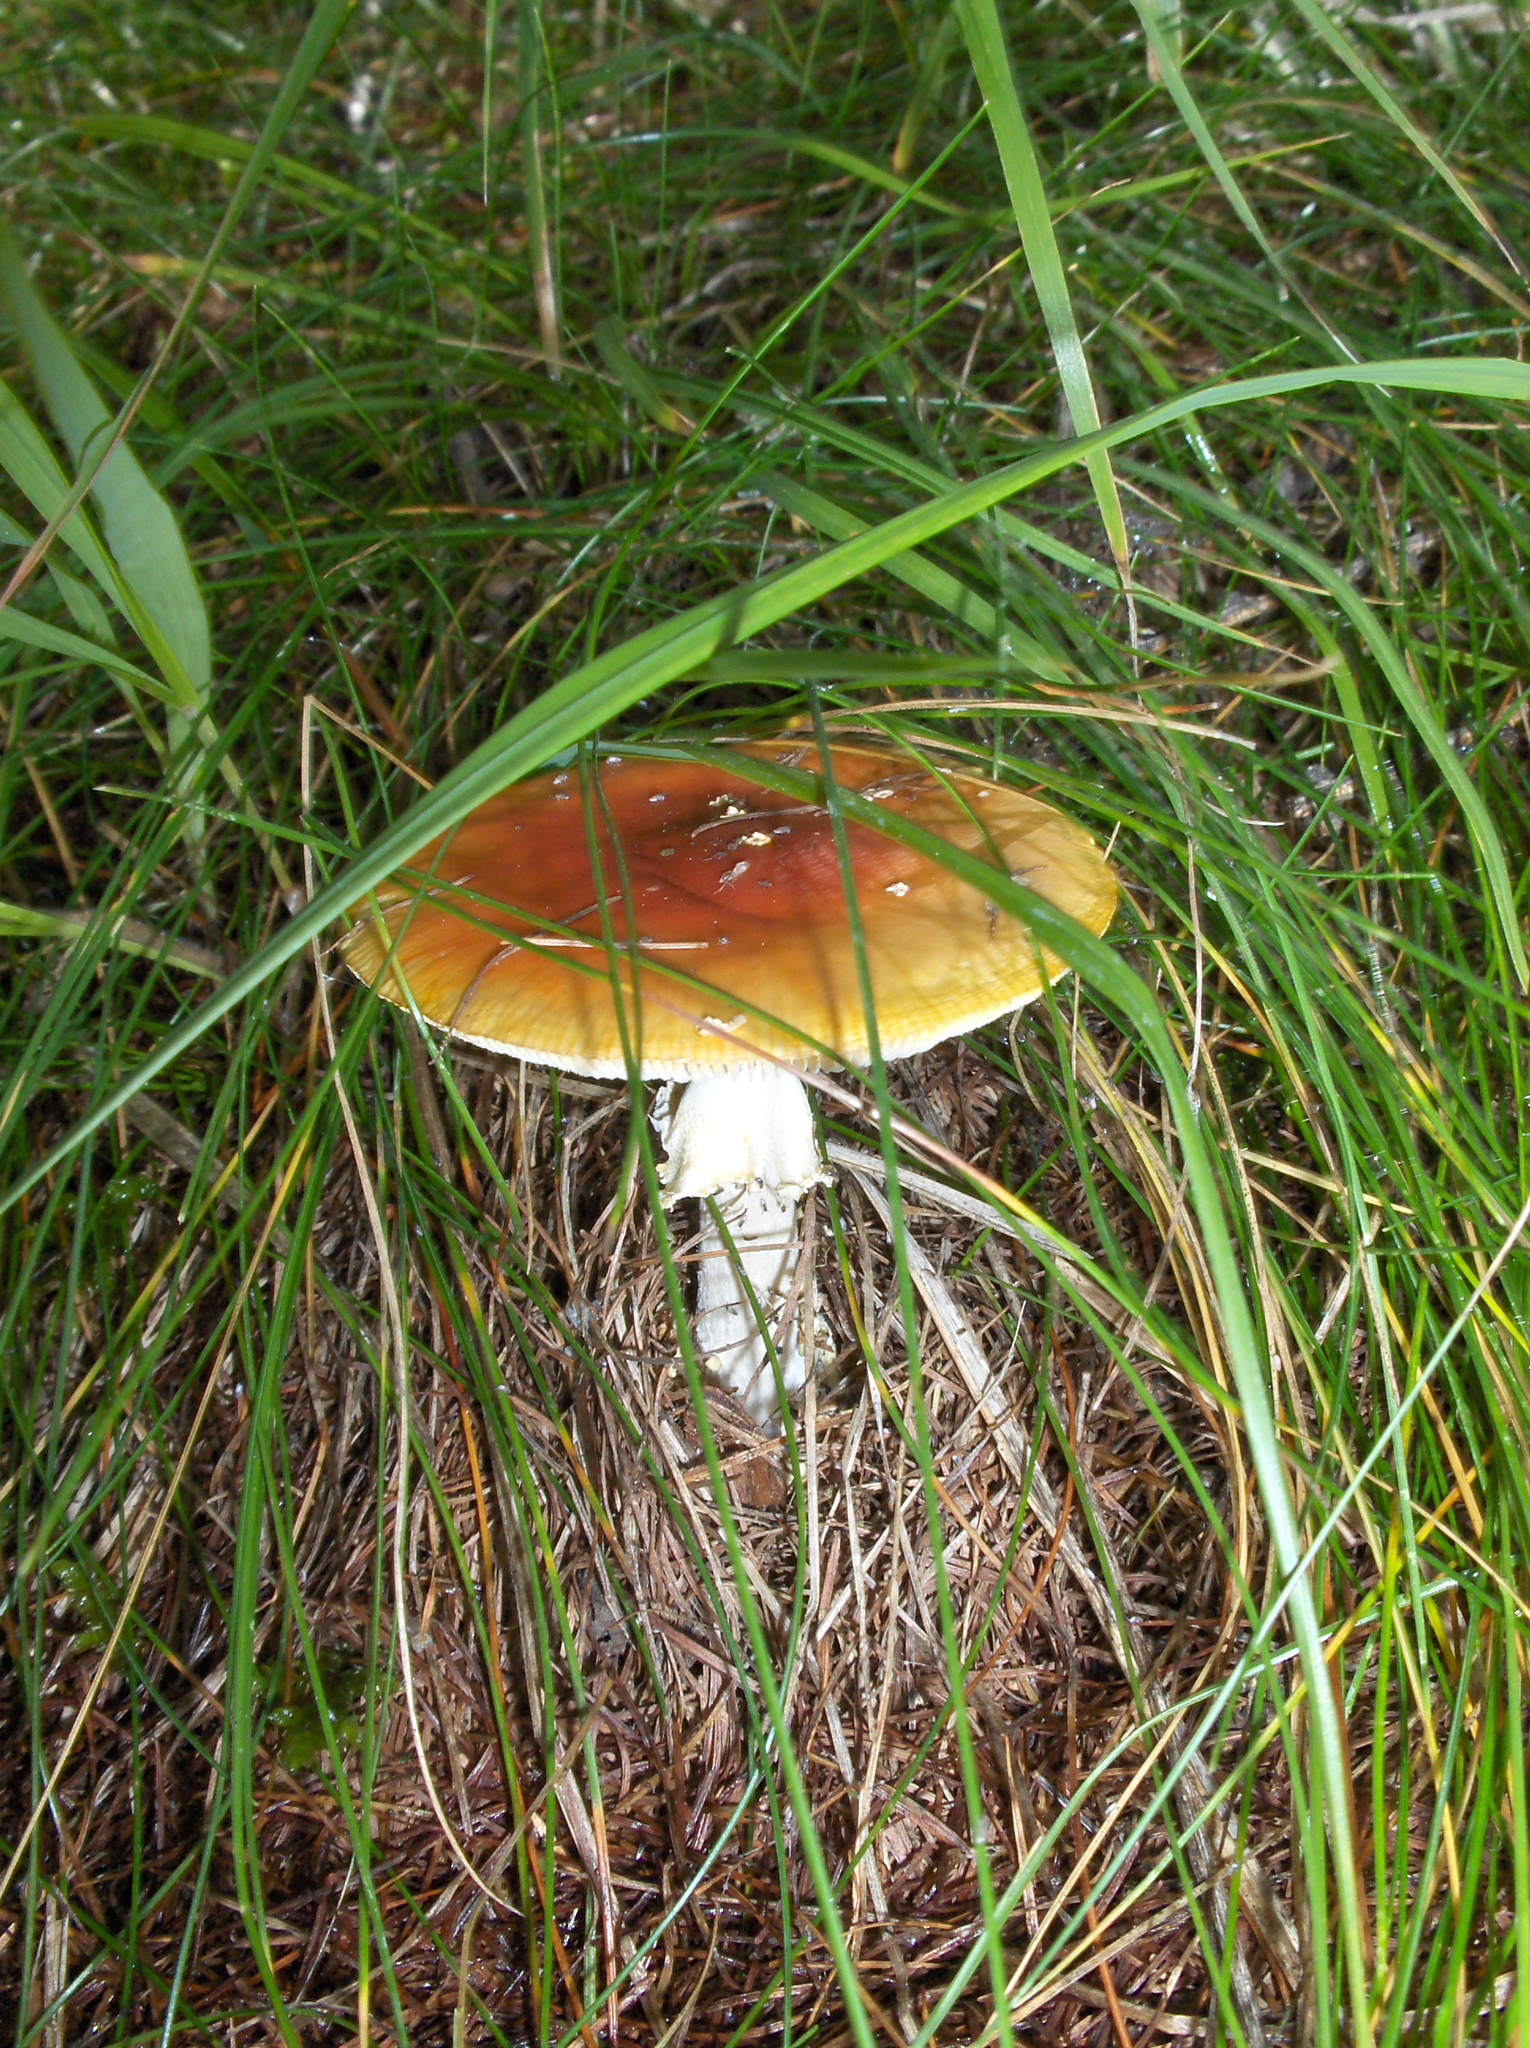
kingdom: Fungi
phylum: Basidiomycota
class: Agaricomycetes
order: Agaricales
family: Amanitaceae
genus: Amanita
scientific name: Amanita muscaria
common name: Fly agaric
